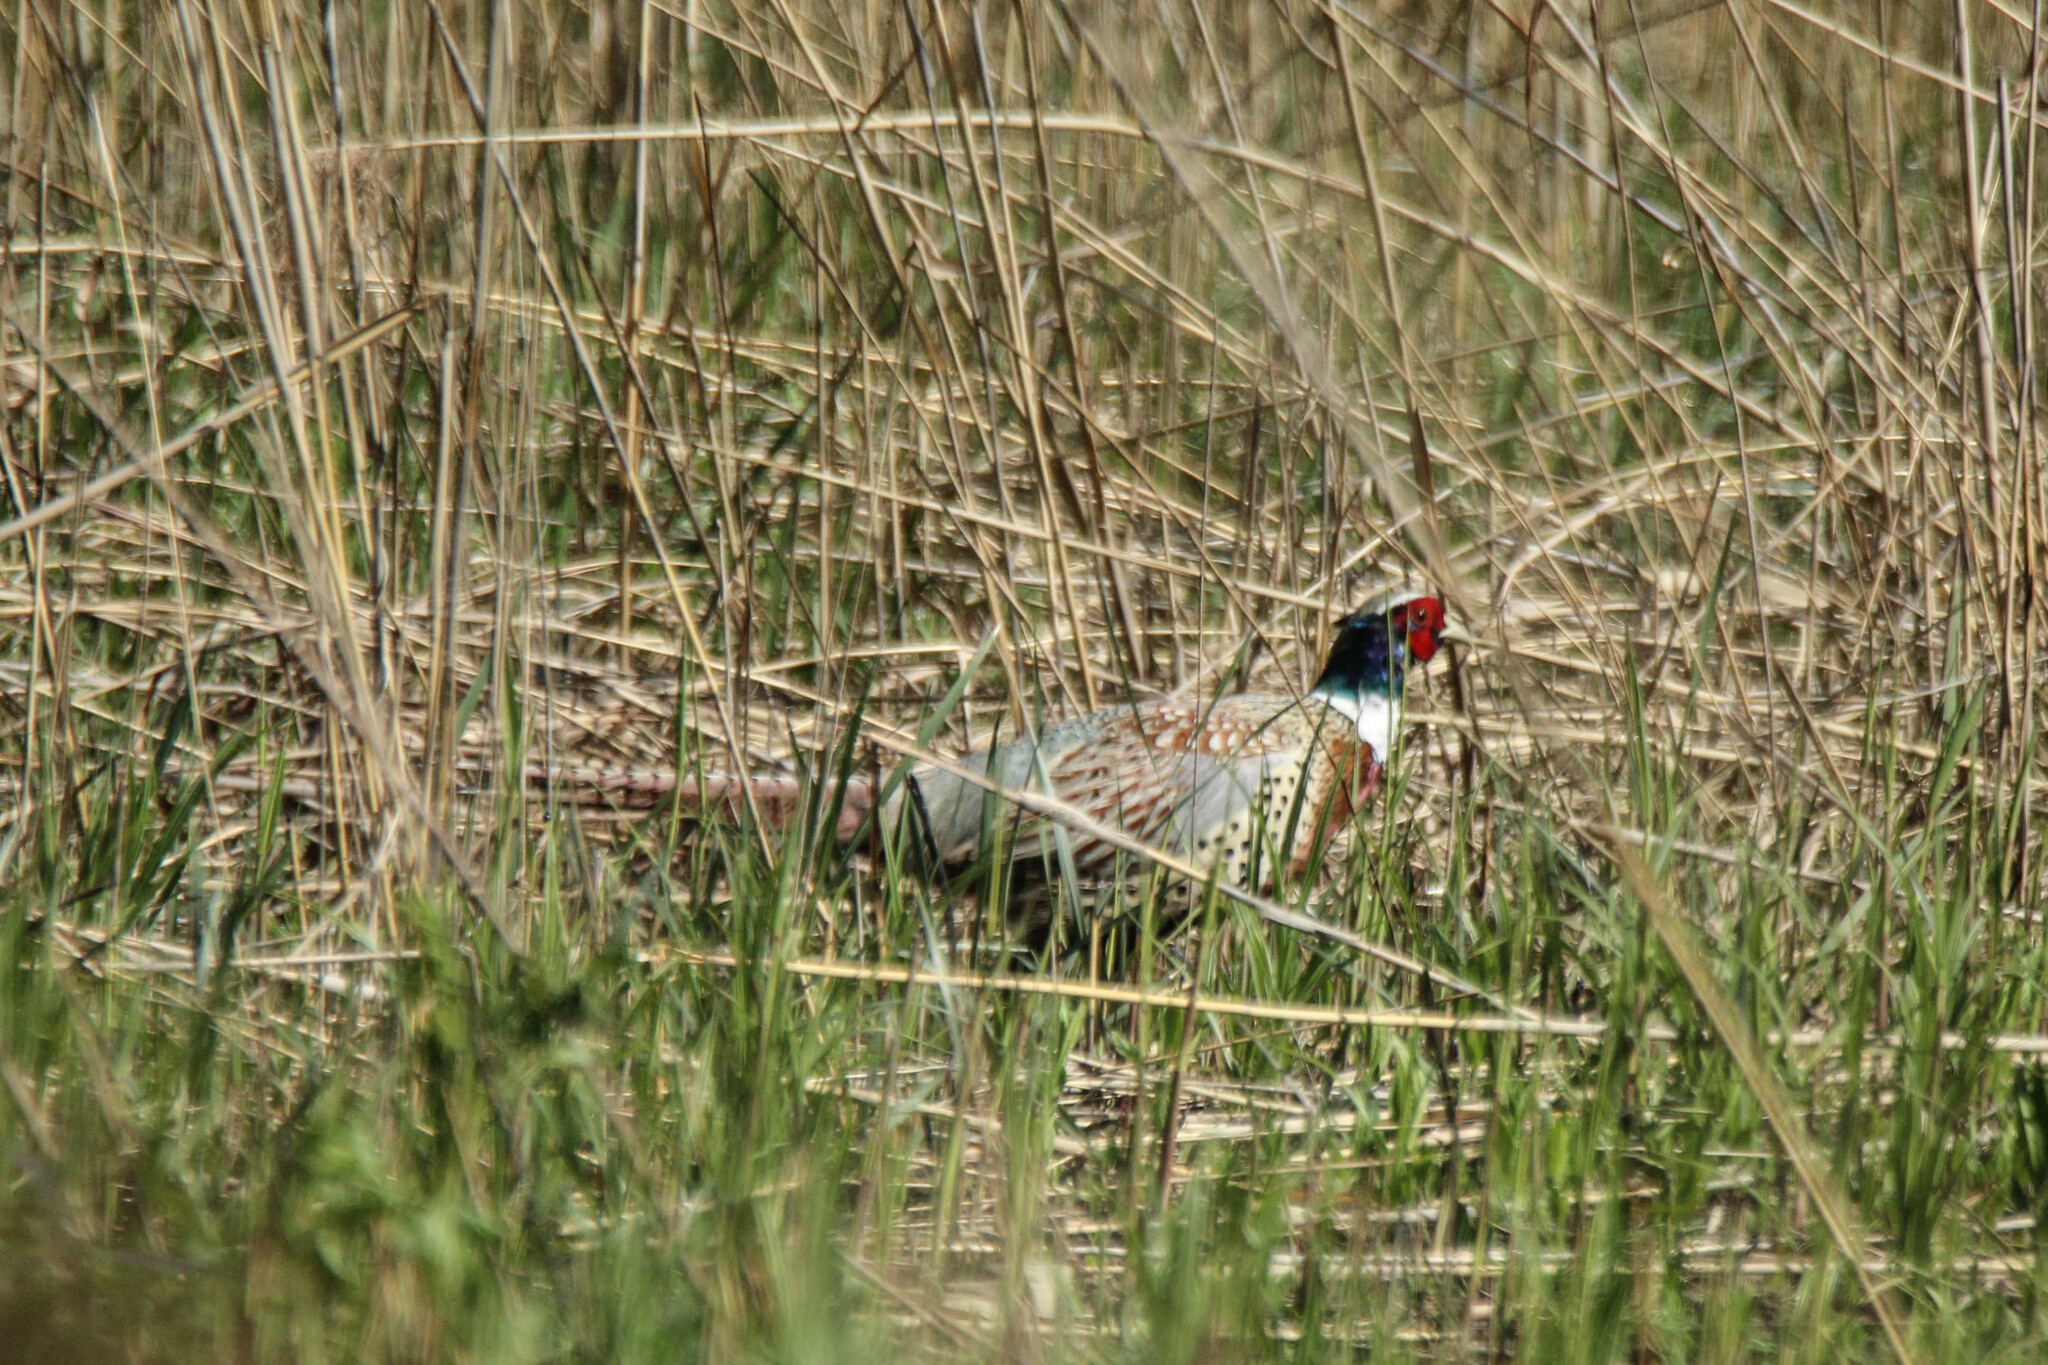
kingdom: Animalia
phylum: Chordata
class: Aves
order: Galliformes
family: Phasianidae
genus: Phasianus
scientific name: Phasianus colchicus
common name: Common pheasant
